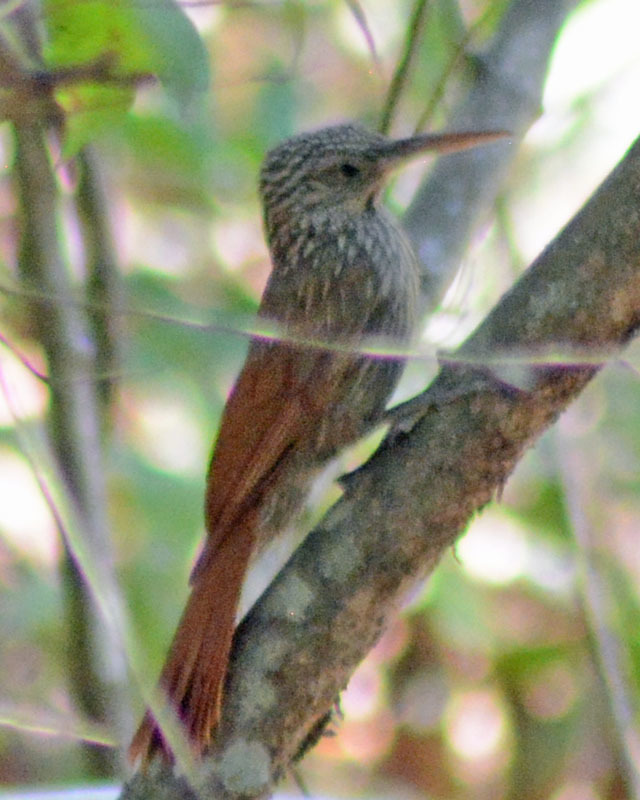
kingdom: Animalia
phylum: Chordata
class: Aves
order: Passeriformes
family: Furnariidae
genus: Xiphorhynchus
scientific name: Xiphorhynchus flavigaster
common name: Ivory-billed woodcreeper
